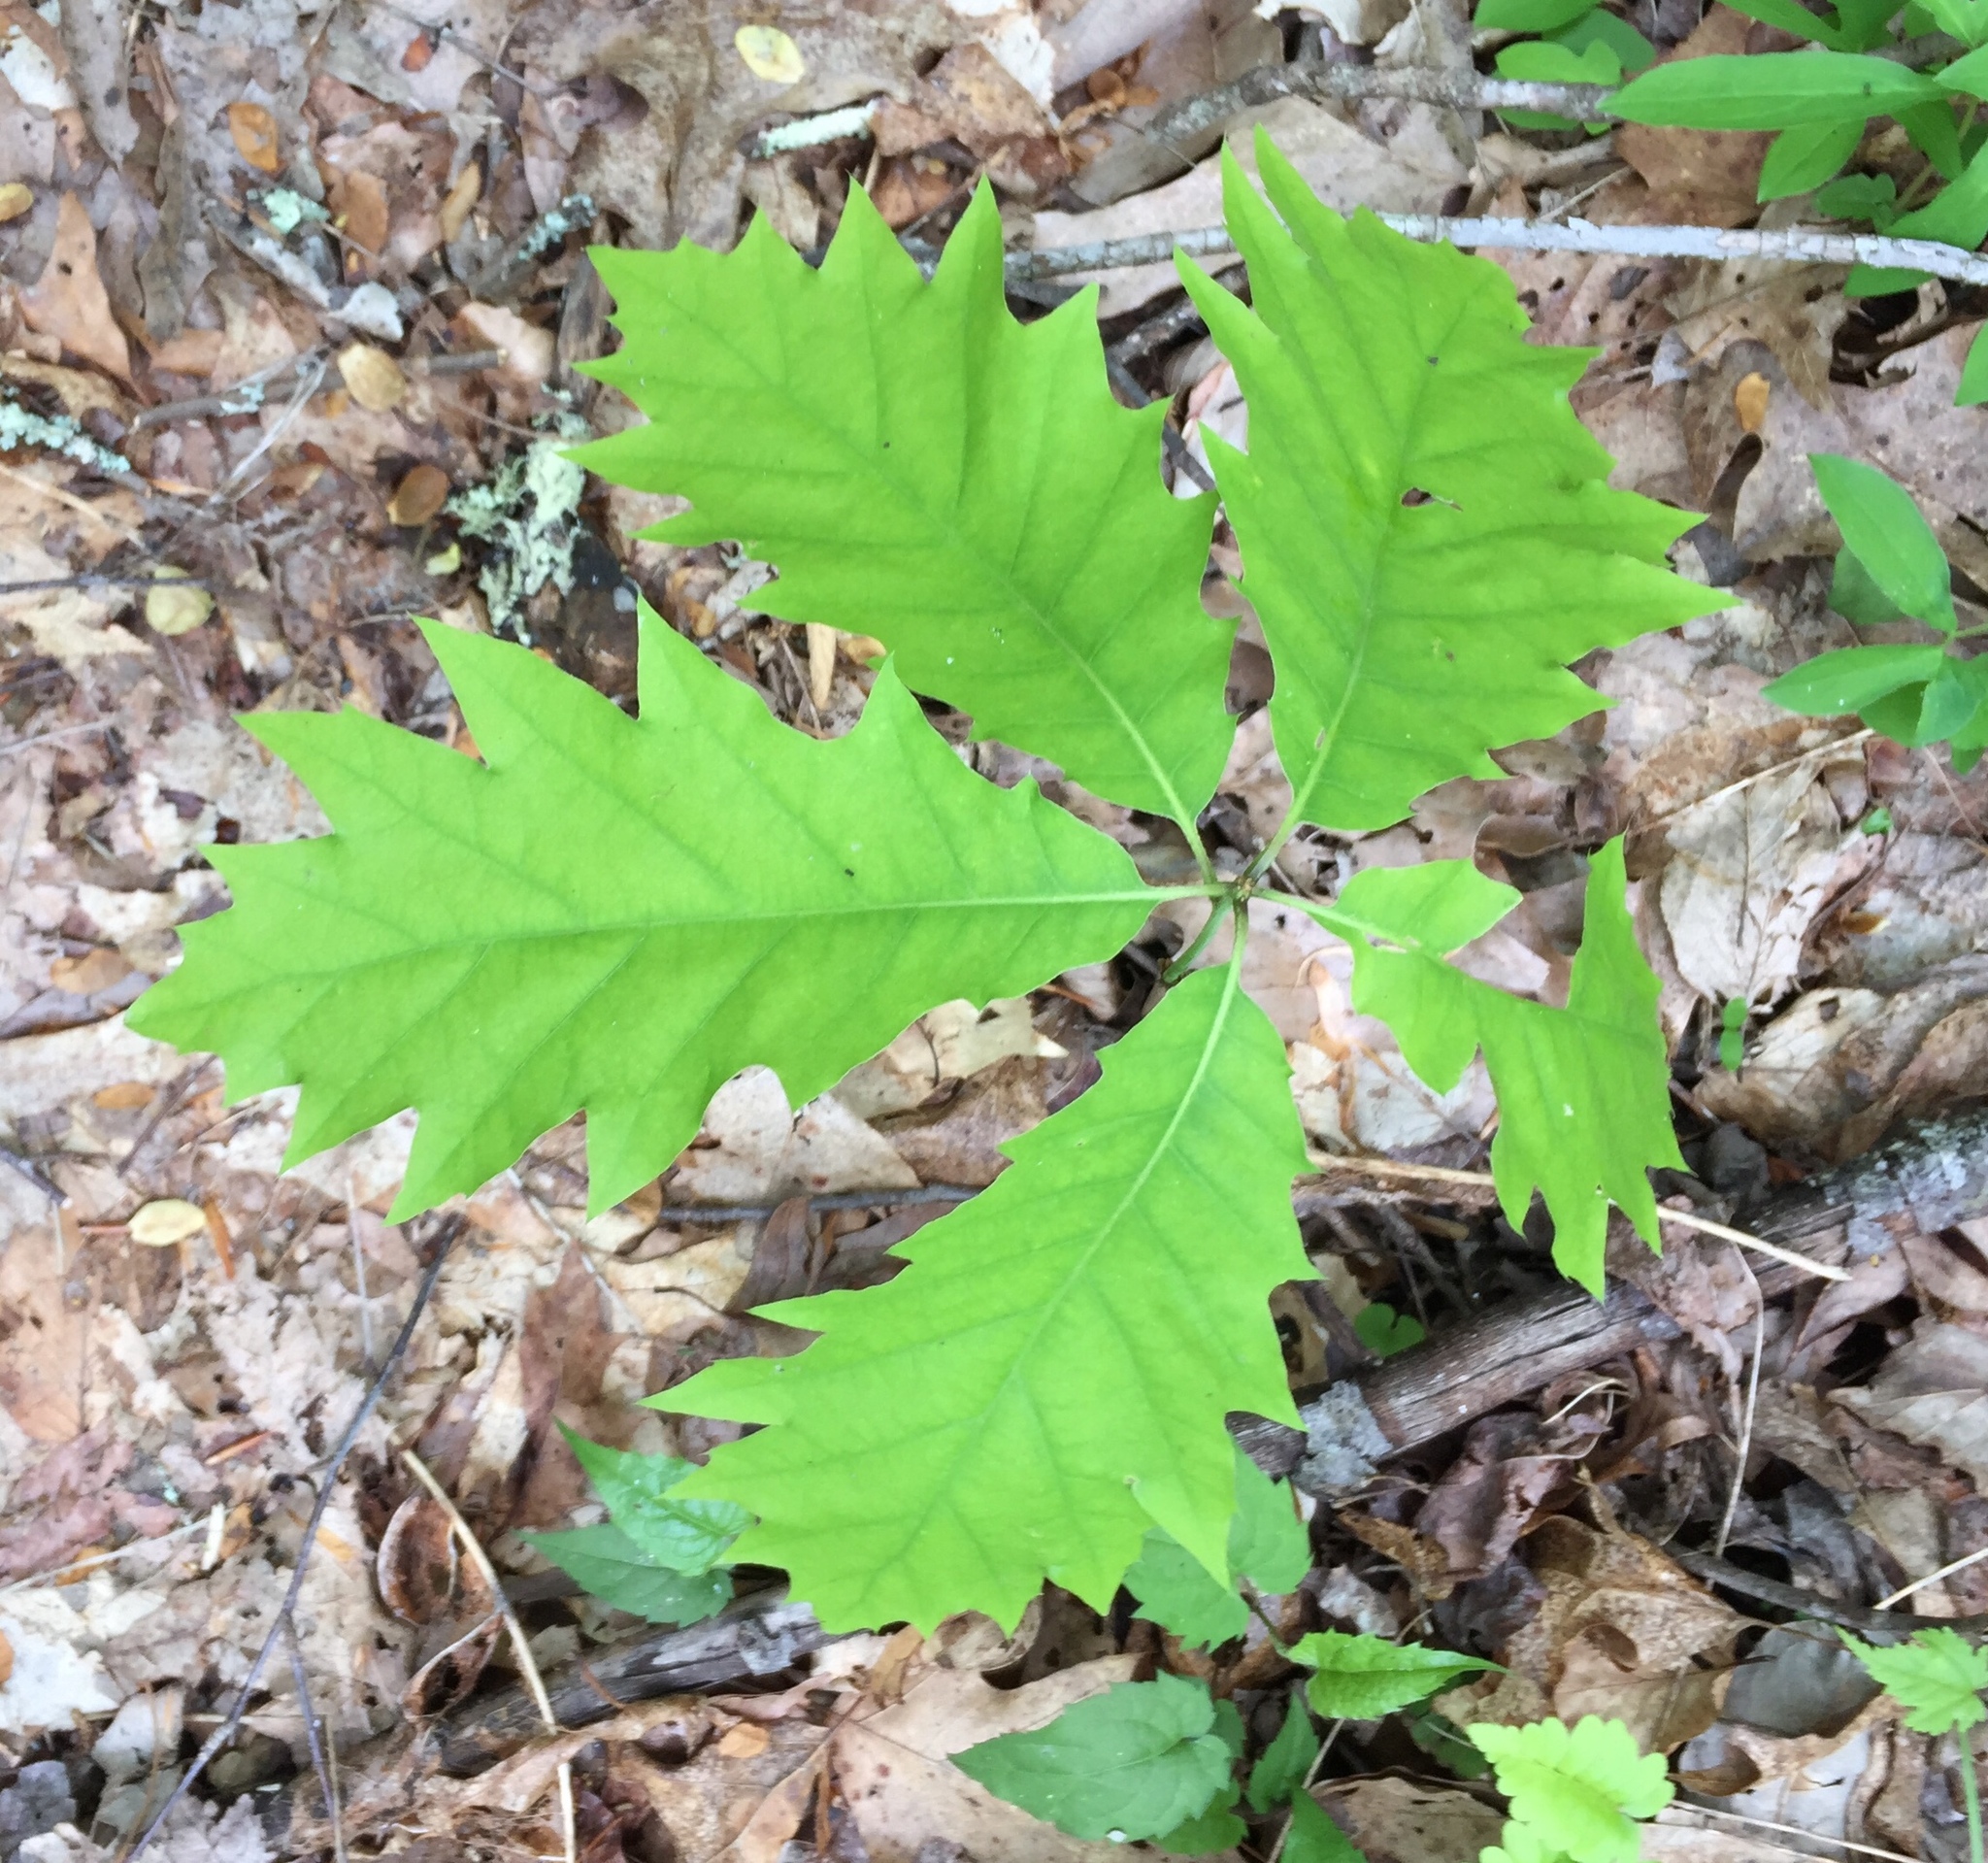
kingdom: Plantae
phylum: Tracheophyta
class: Magnoliopsida
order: Fagales
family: Fagaceae
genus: Quercus
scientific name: Quercus rubra
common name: Red oak
